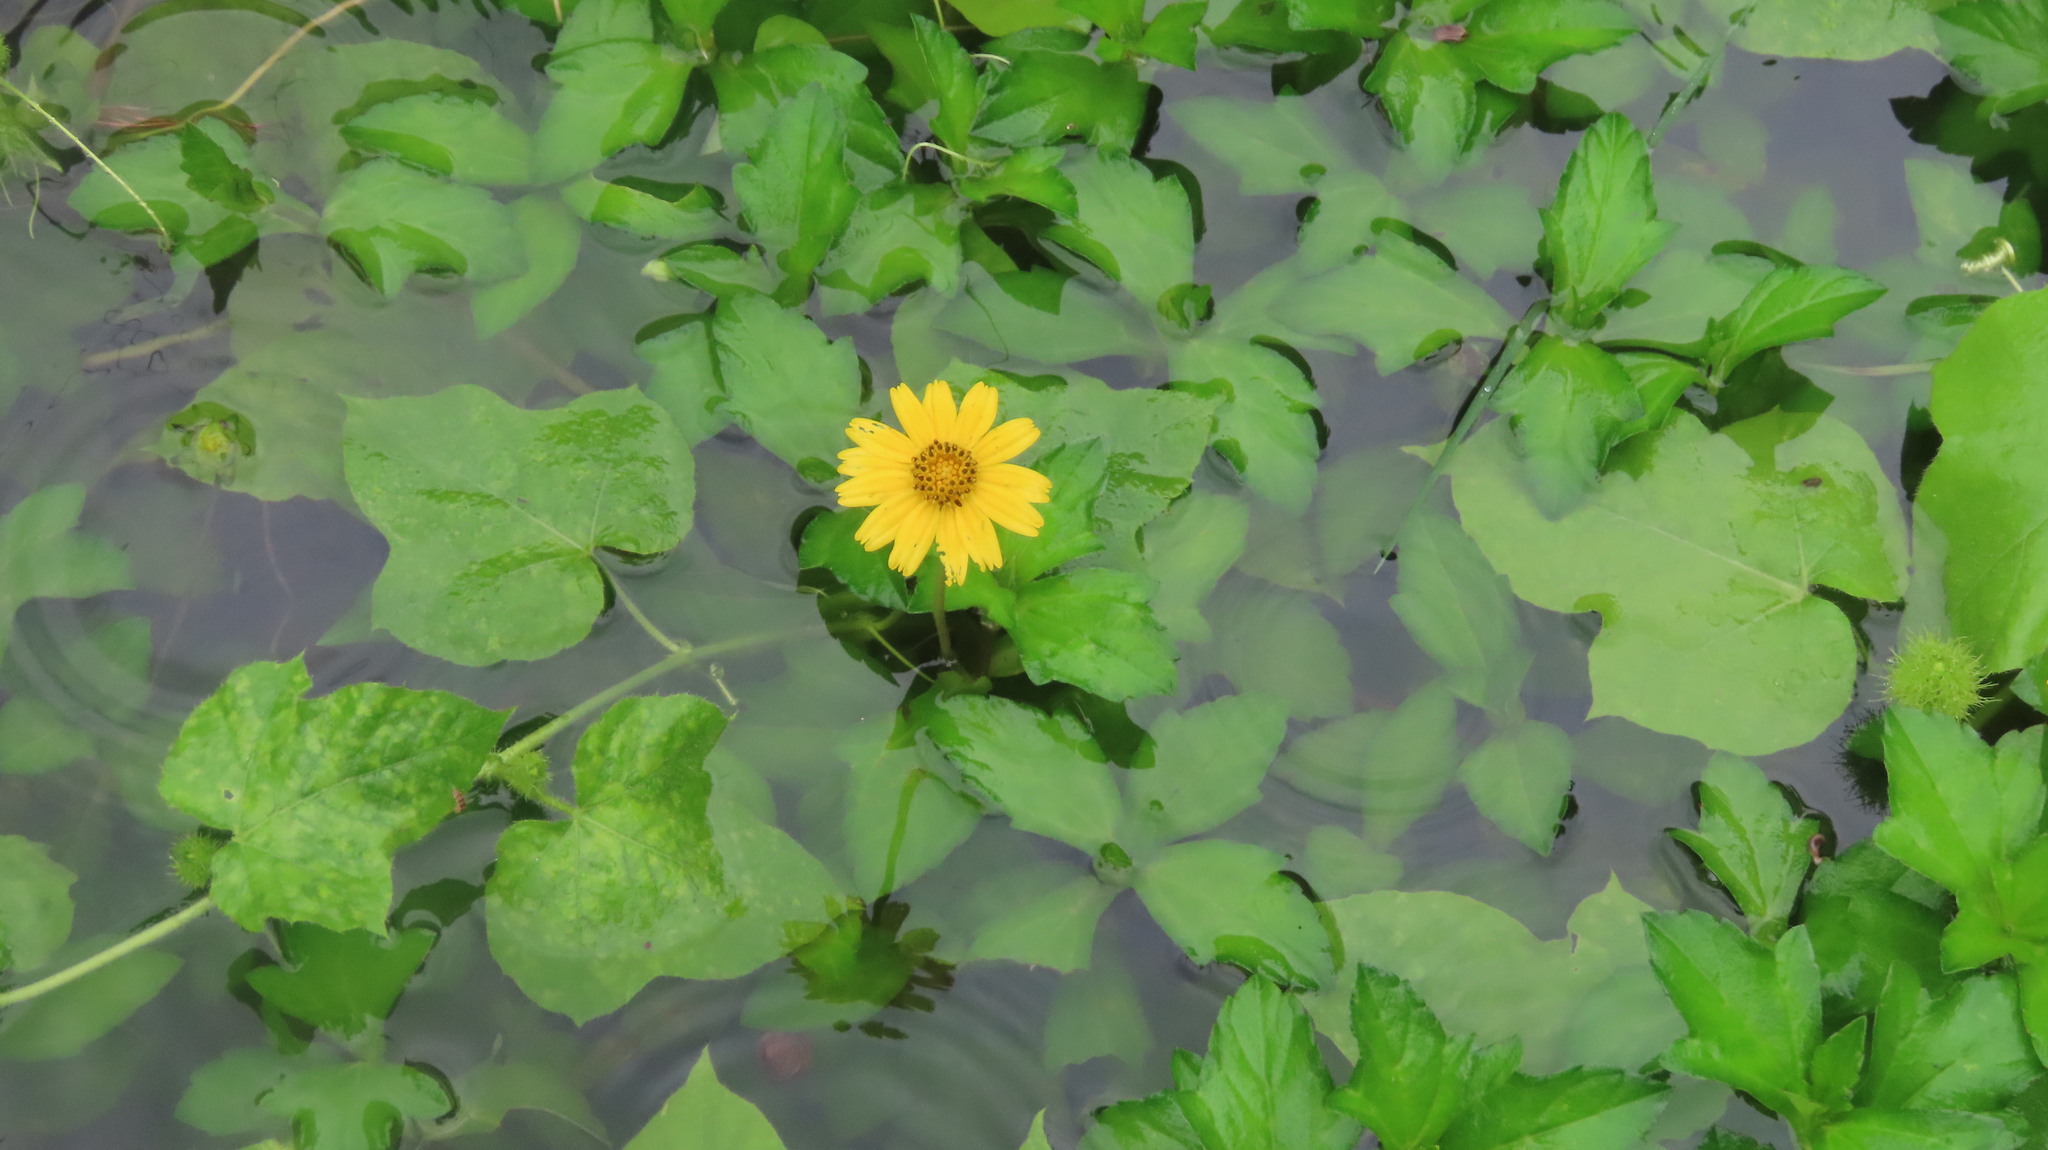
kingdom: Plantae
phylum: Tracheophyta
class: Magnoliopsida
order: Asterales
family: Asteraceae
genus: Sphagneticola
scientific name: Sphagneticola trilobata
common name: Bay biscayne creeping-oxeye
